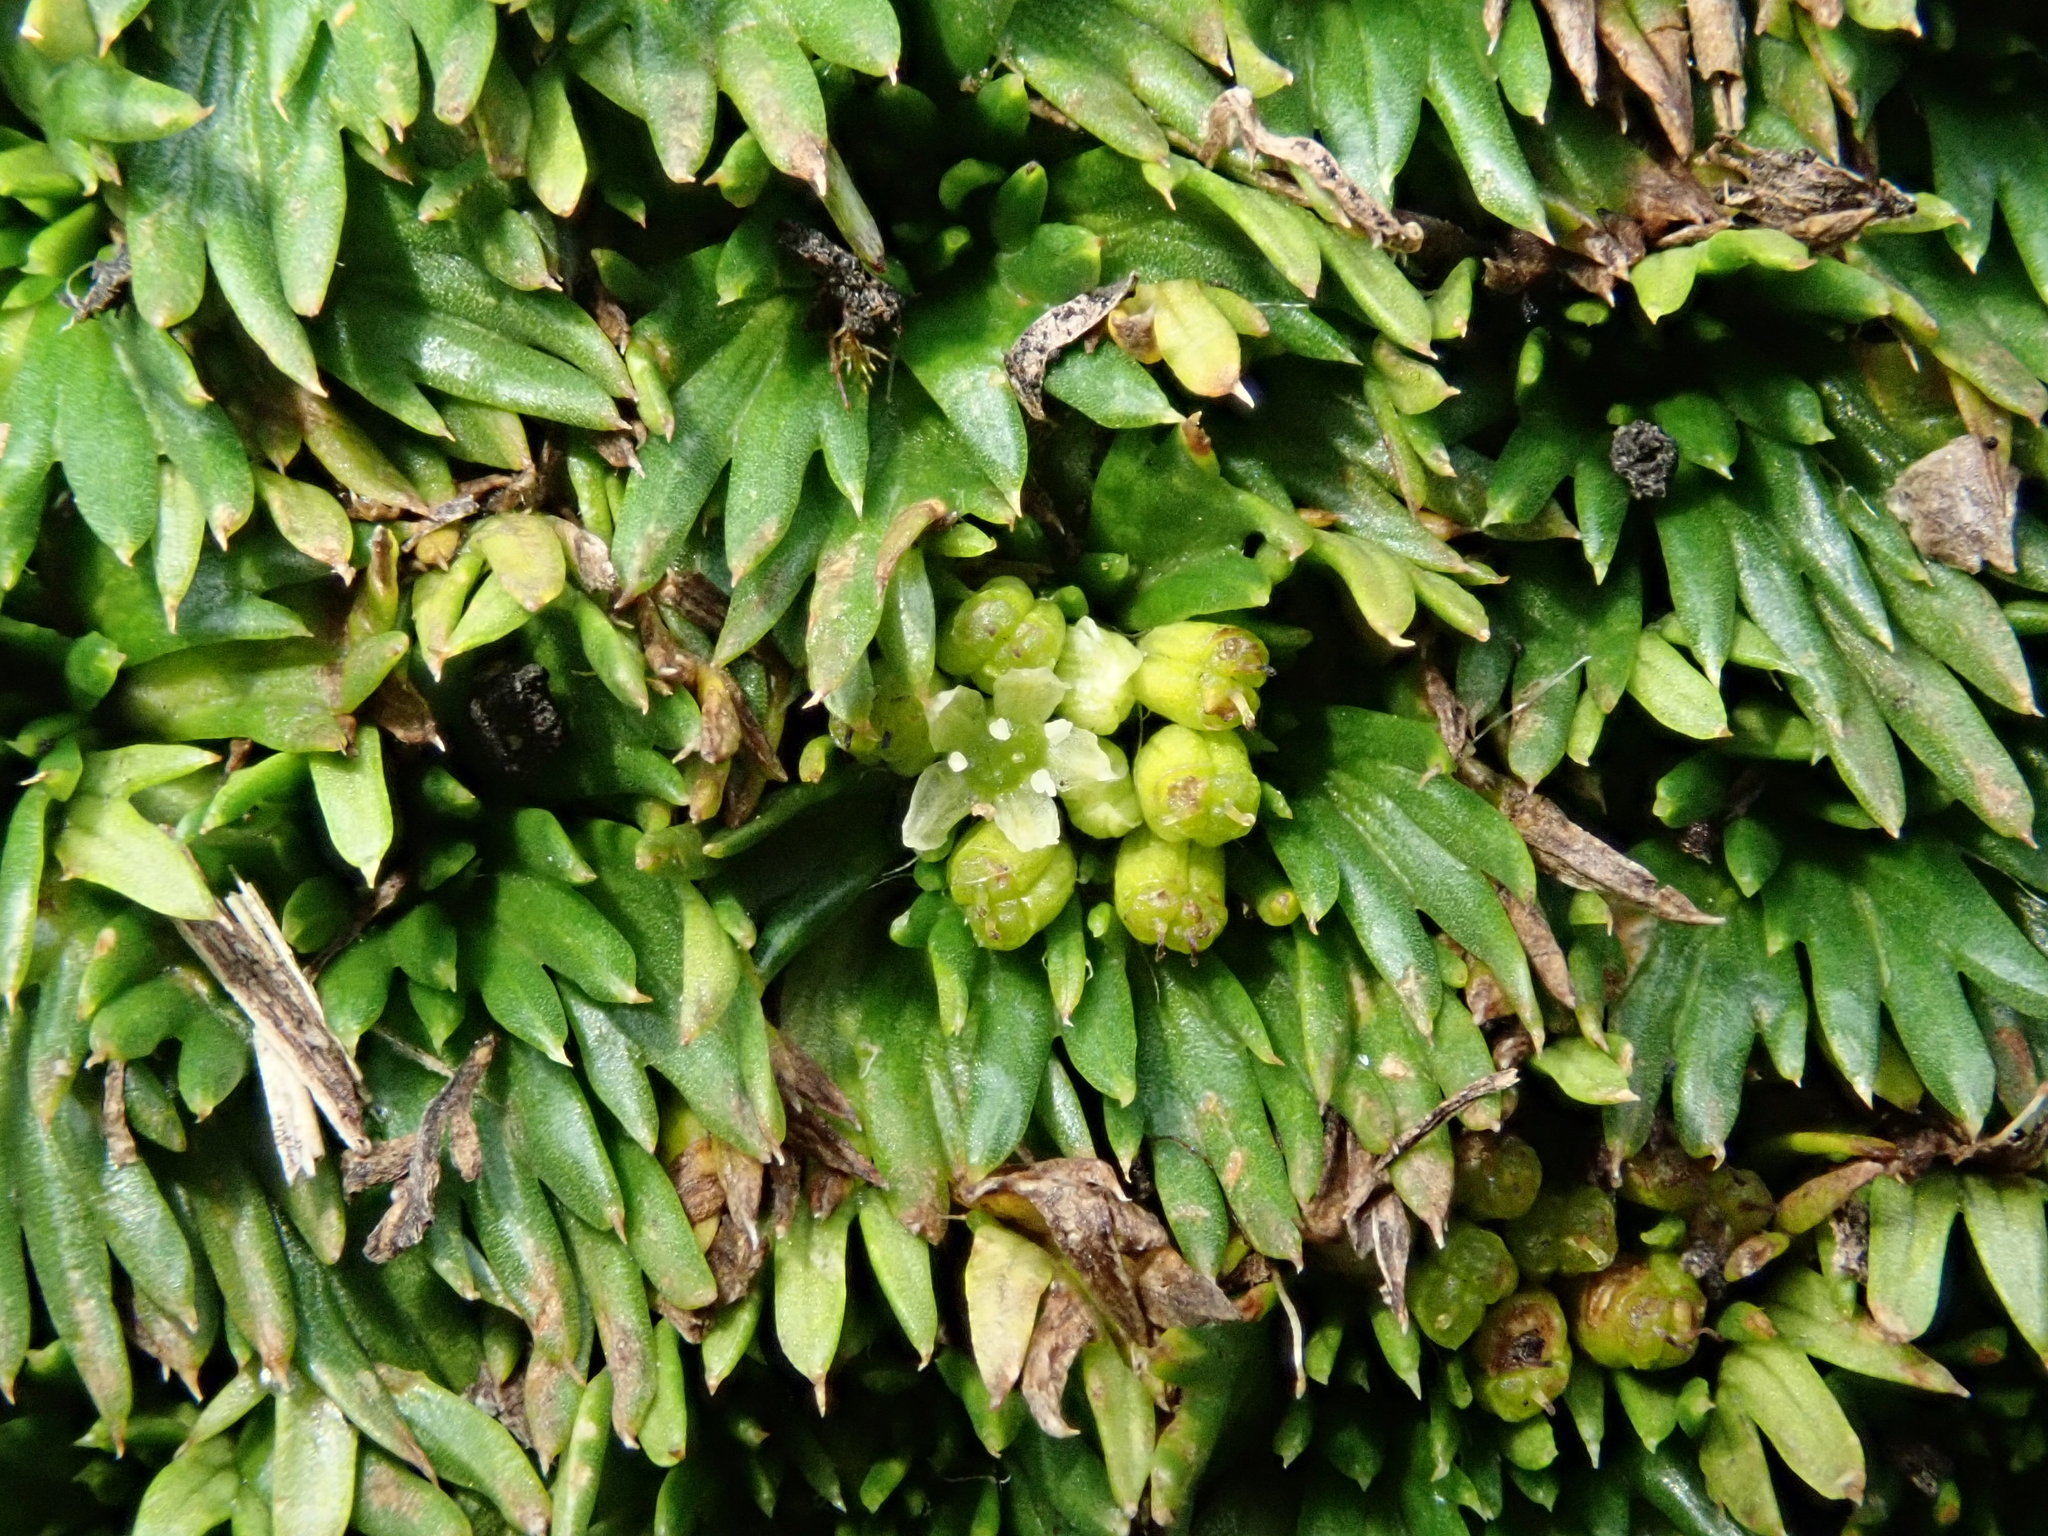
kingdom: Plantae
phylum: Tracheophyta
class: Magnoliopsida
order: Apiales
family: Apiaceae
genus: Azorella
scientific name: Azorella pedunculata
